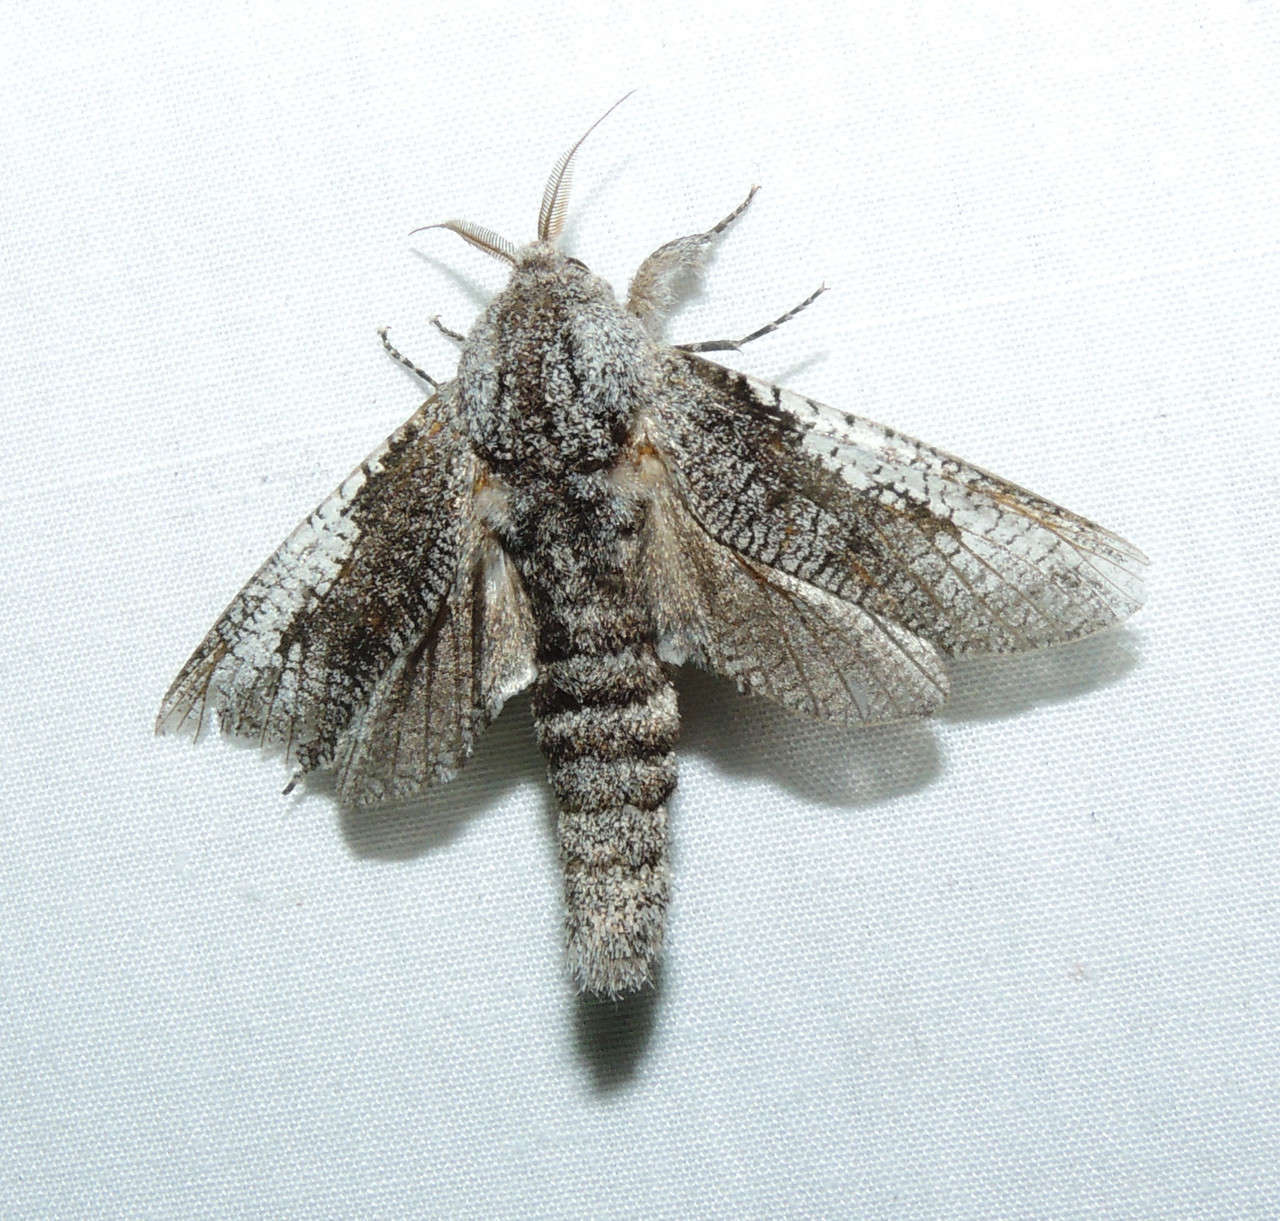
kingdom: Animalia
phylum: Arthropoda
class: Insecta
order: Lepidoptera
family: Cossidae
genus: Endoxyla
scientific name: Endoxyla secta
